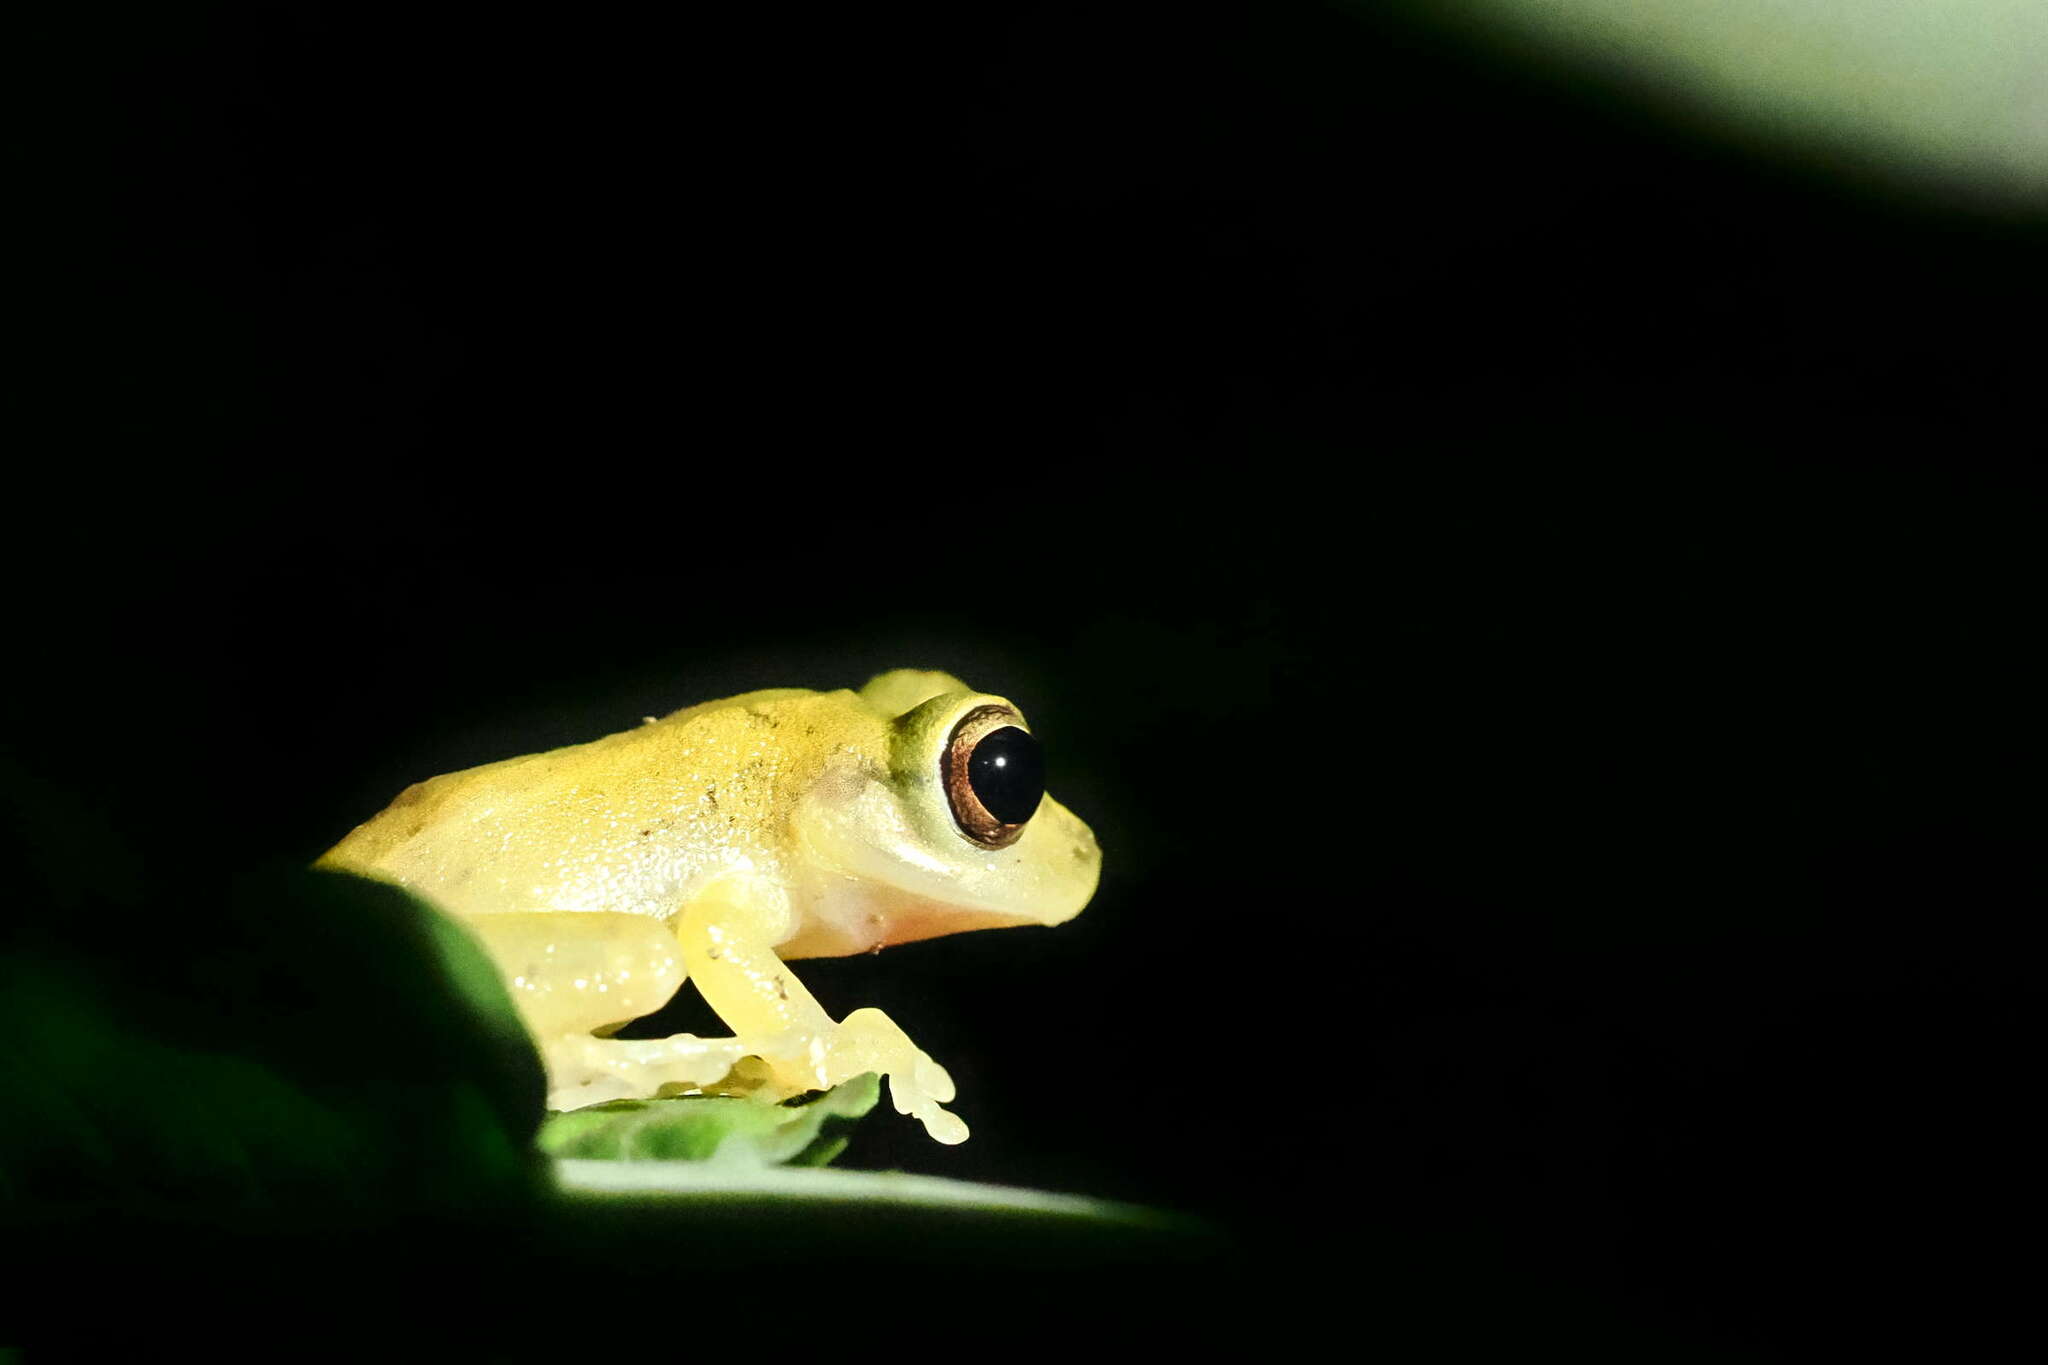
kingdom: Animalia
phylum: Chordata
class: Amphibia
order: Anura
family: Hemiphractidae
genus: Flectonotus
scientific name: Flectonotus fitzgeraldi
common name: Marsupial frog
